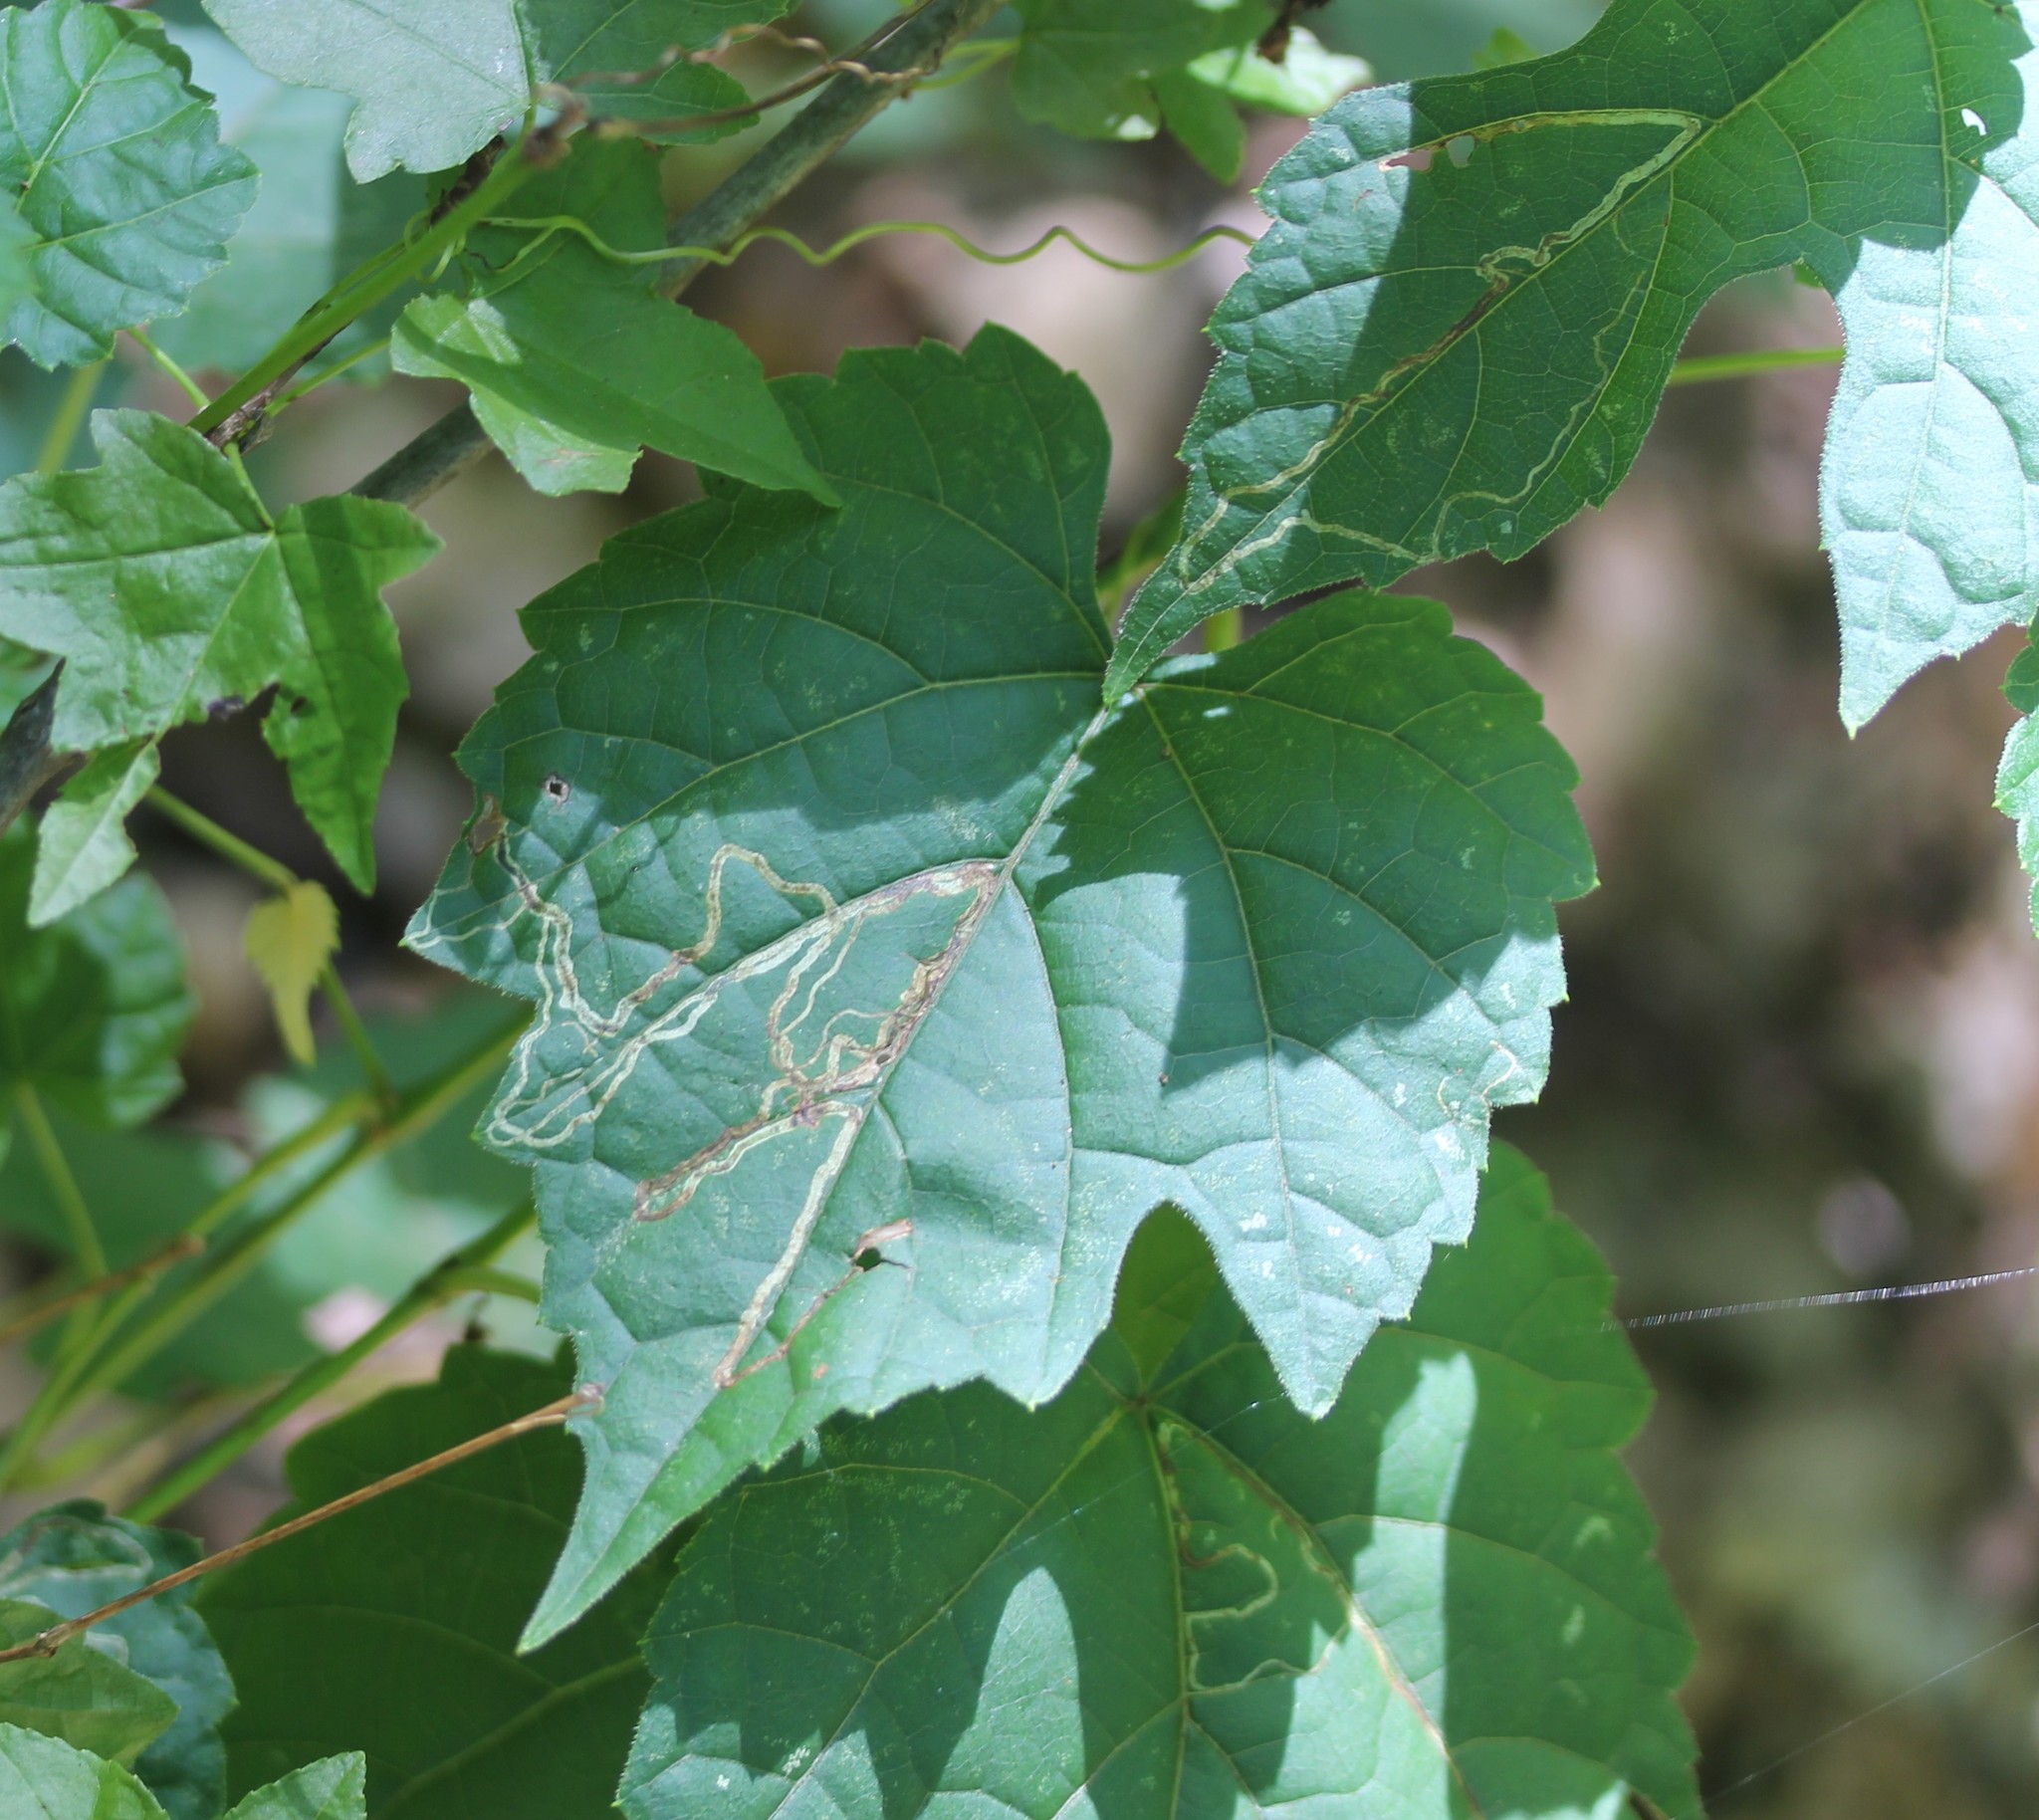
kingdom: Animalia
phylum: Arthropoda
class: Insecta
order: Lepidoptera
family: Gracillariidae
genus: Phyllocnistis
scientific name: Phyllocnistis vitifoliella
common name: Grape leaf-miner moth
